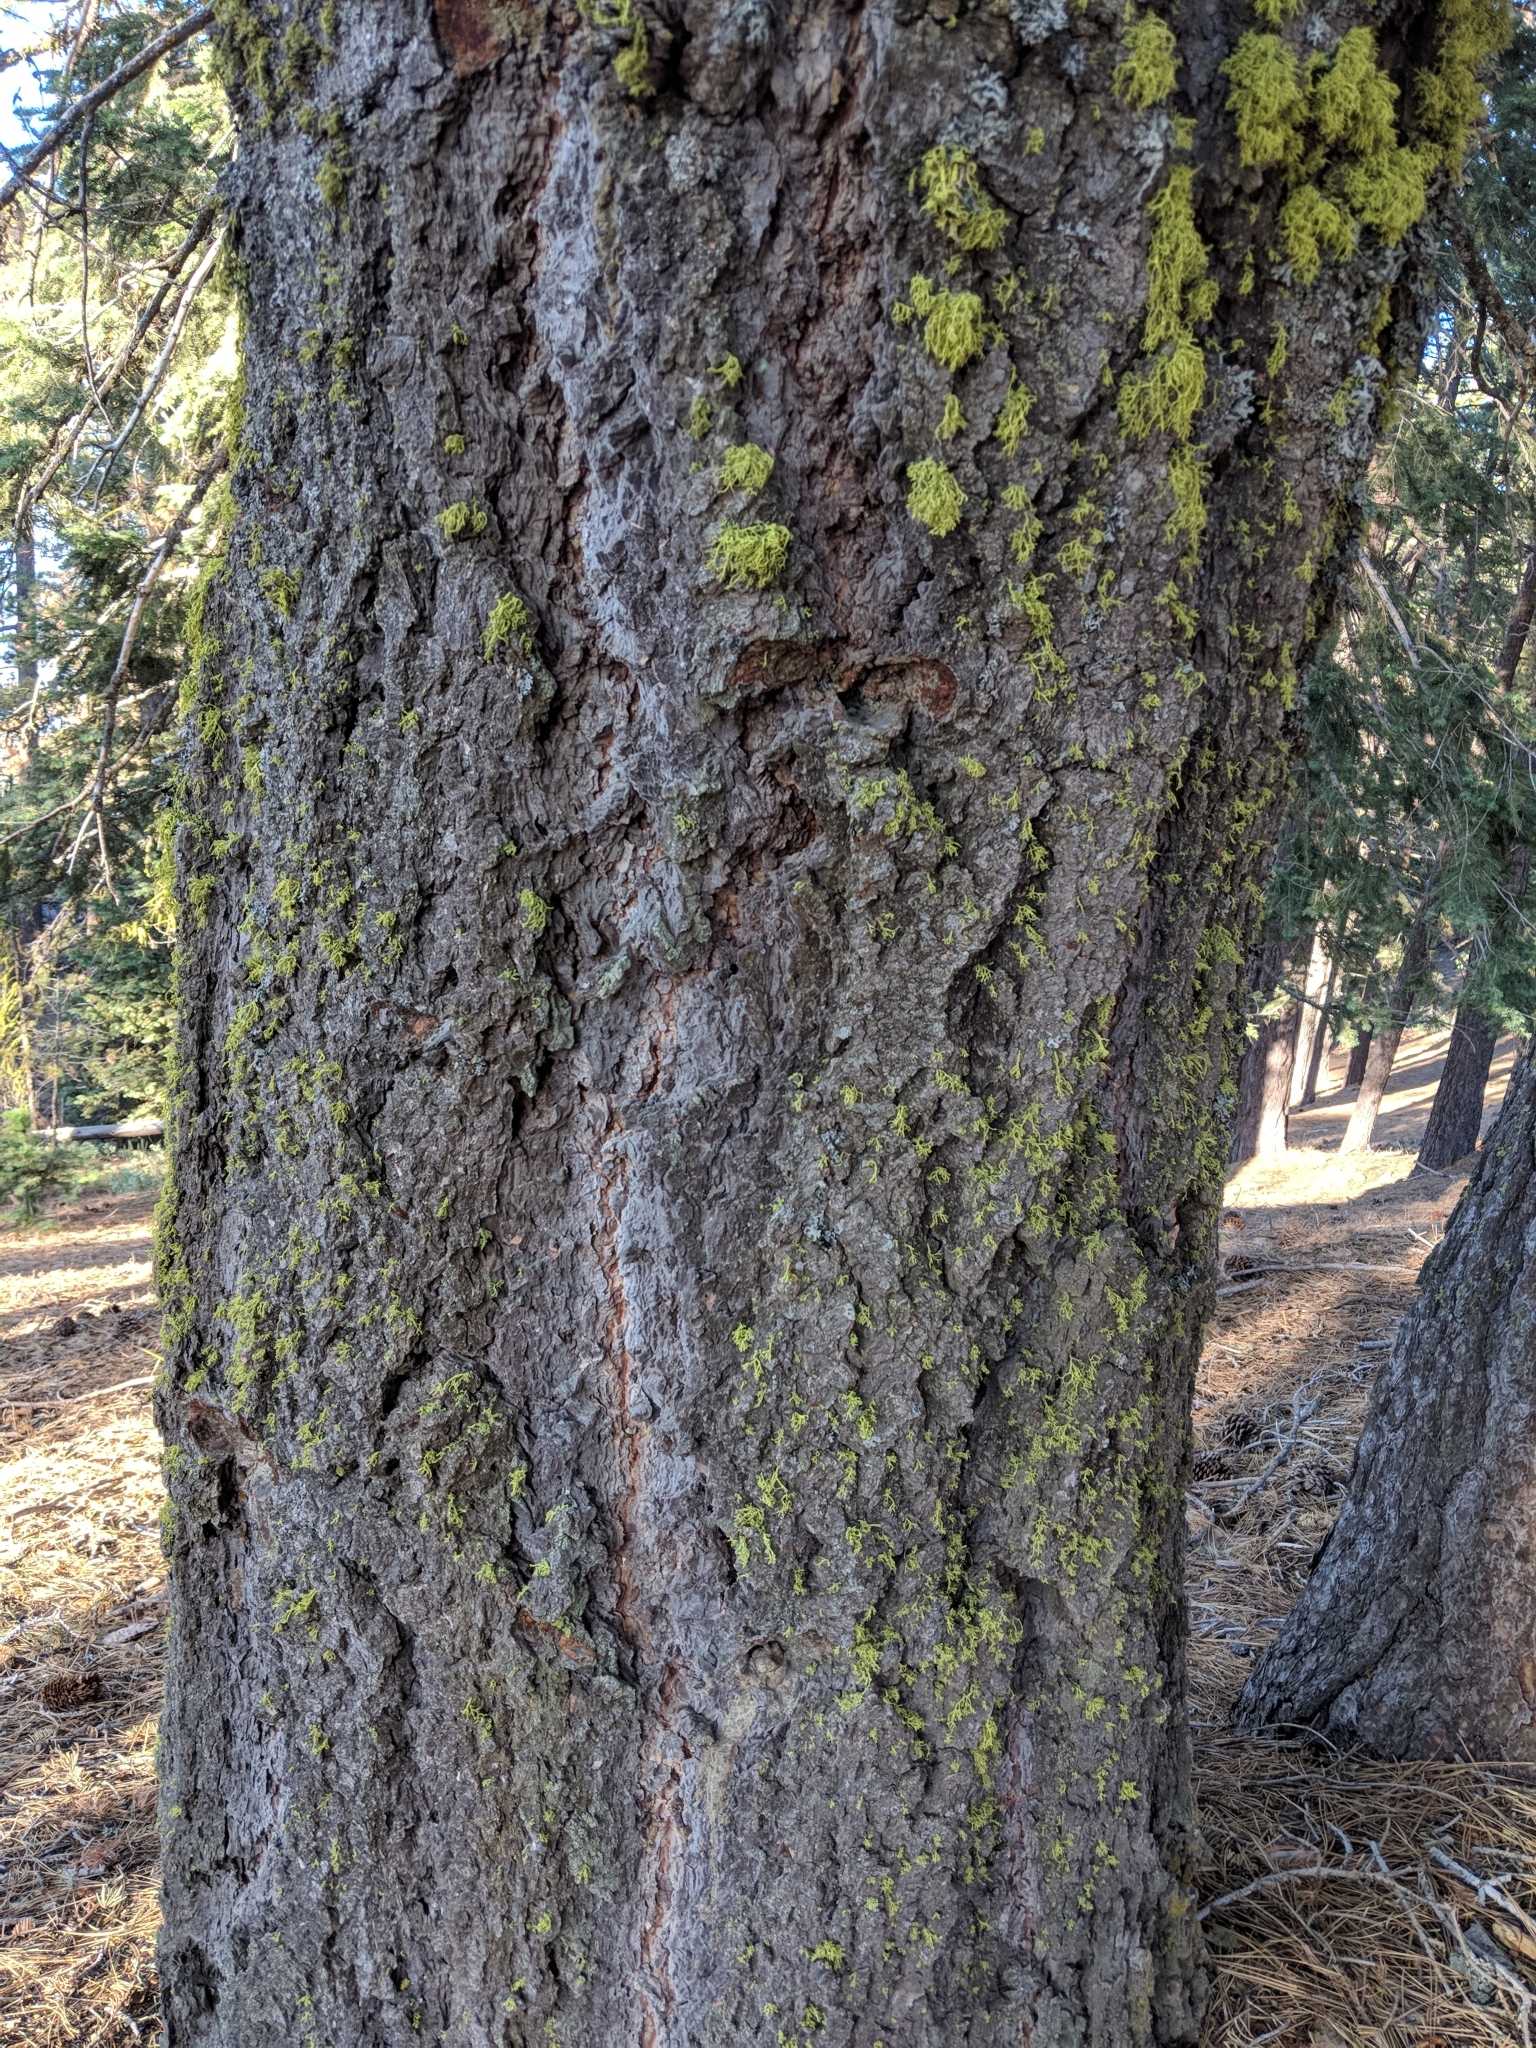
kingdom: Plantae
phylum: Tracheophyta
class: Pinopsida
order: Pinales
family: Pinaceae
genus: Abies
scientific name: Abies concolor
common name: Colorado fir
